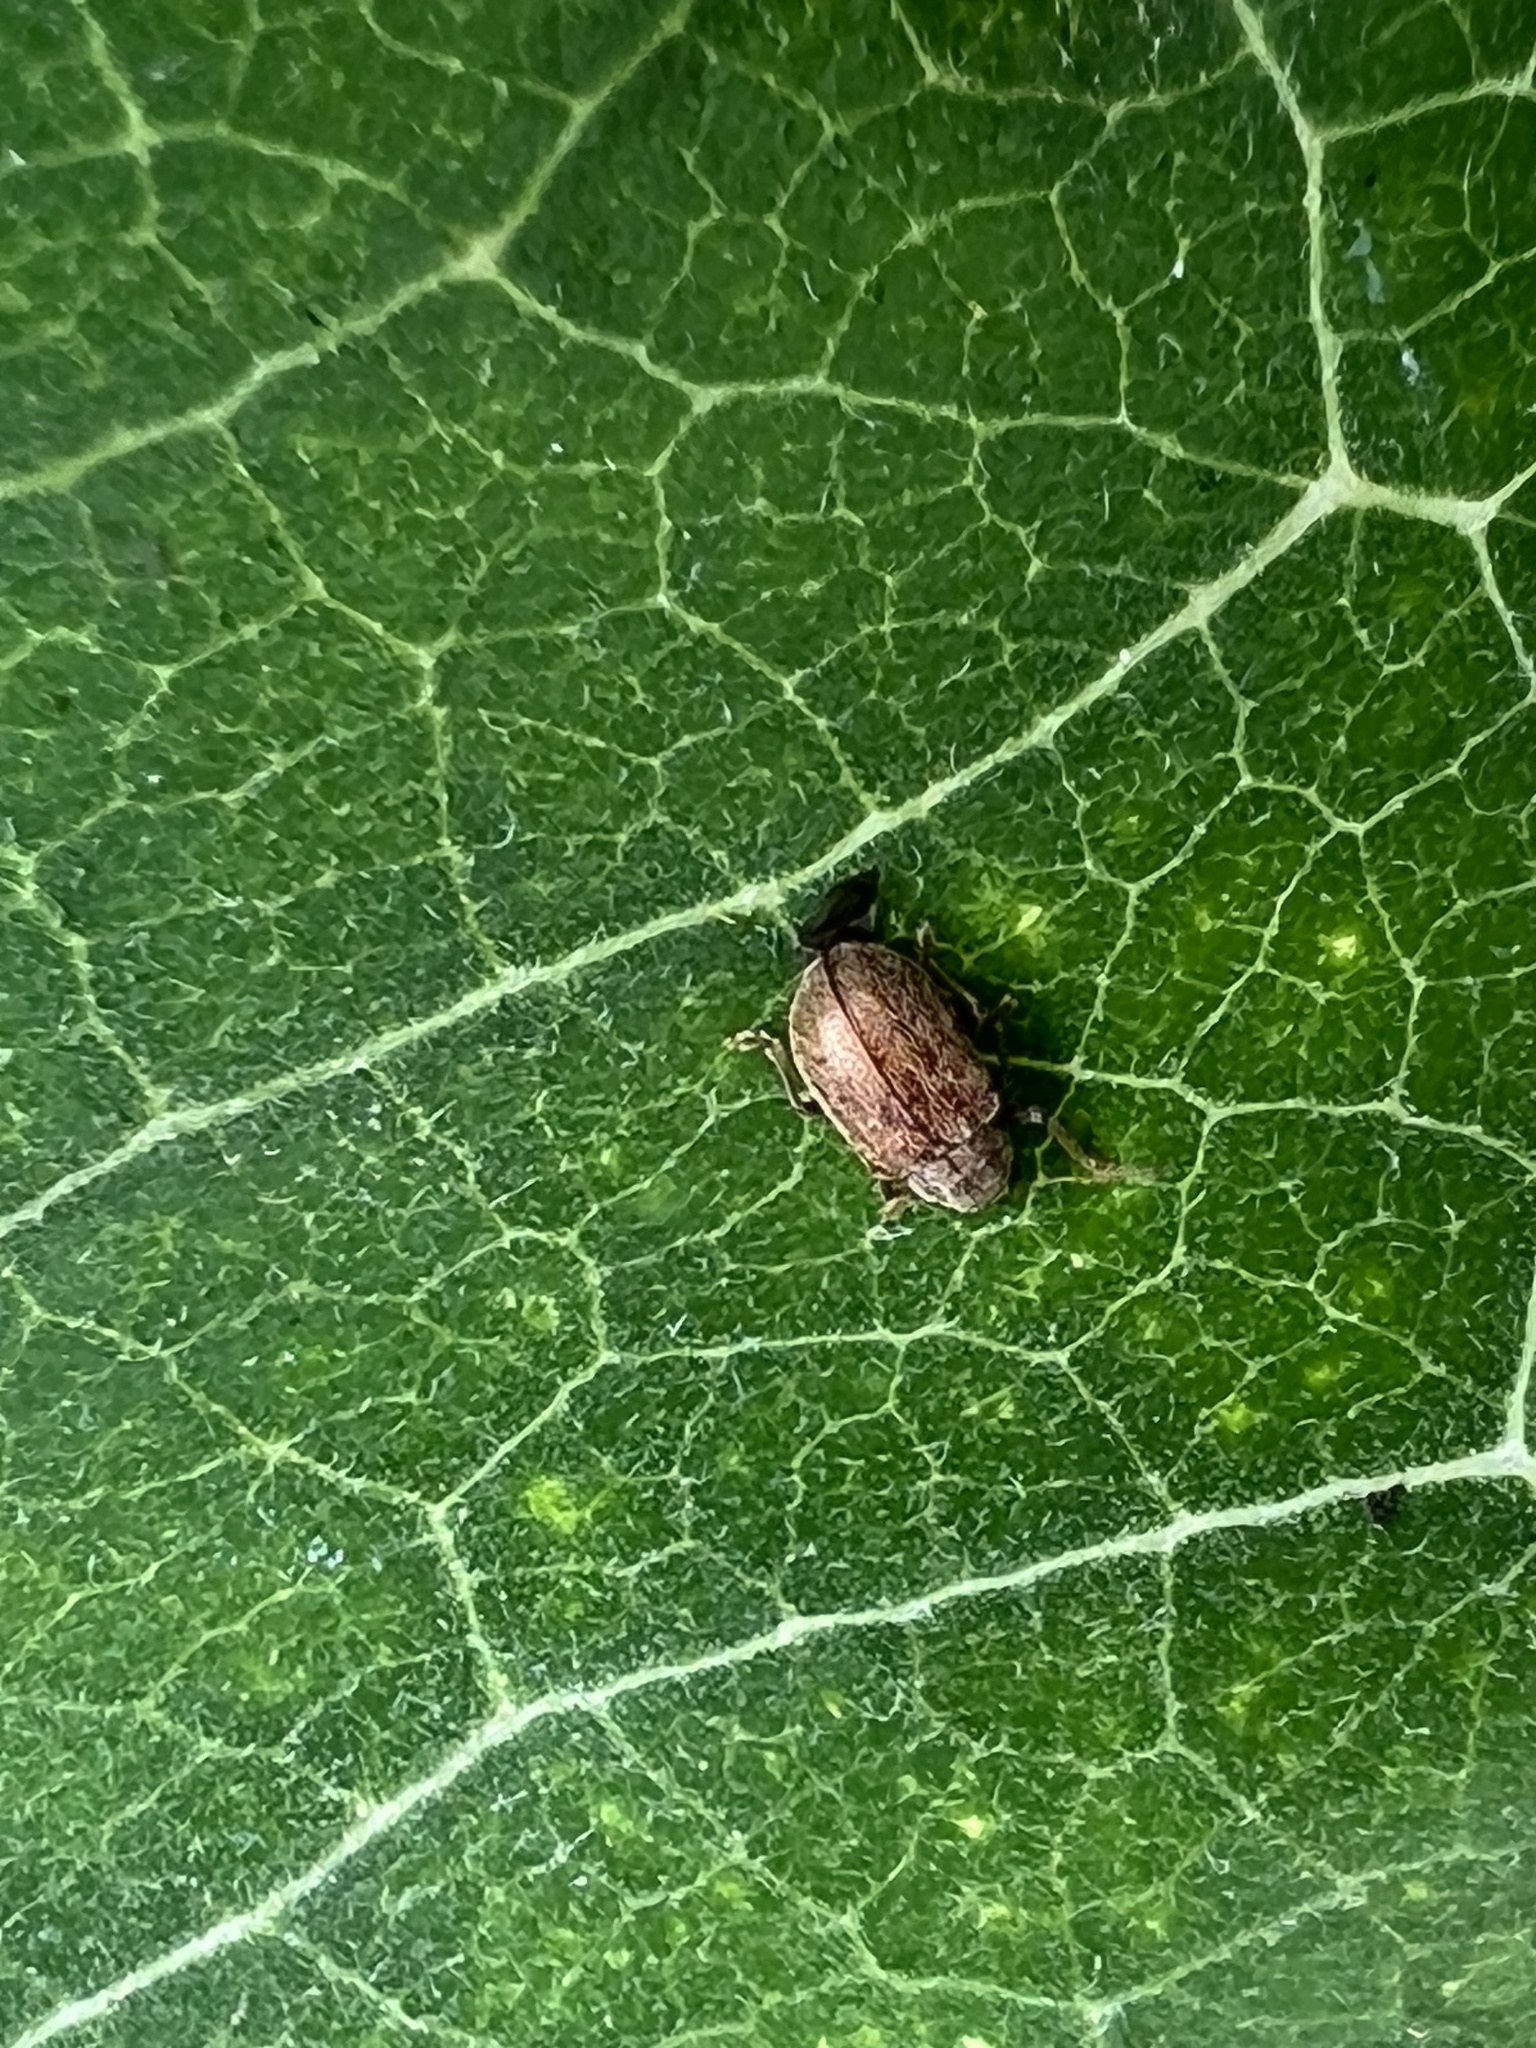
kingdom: Animalia
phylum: Arthropoda
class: Insecta
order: Coleoptera
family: Chrysomelidae
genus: Demotina
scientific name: Demotina modesta
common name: Leaf beetle
